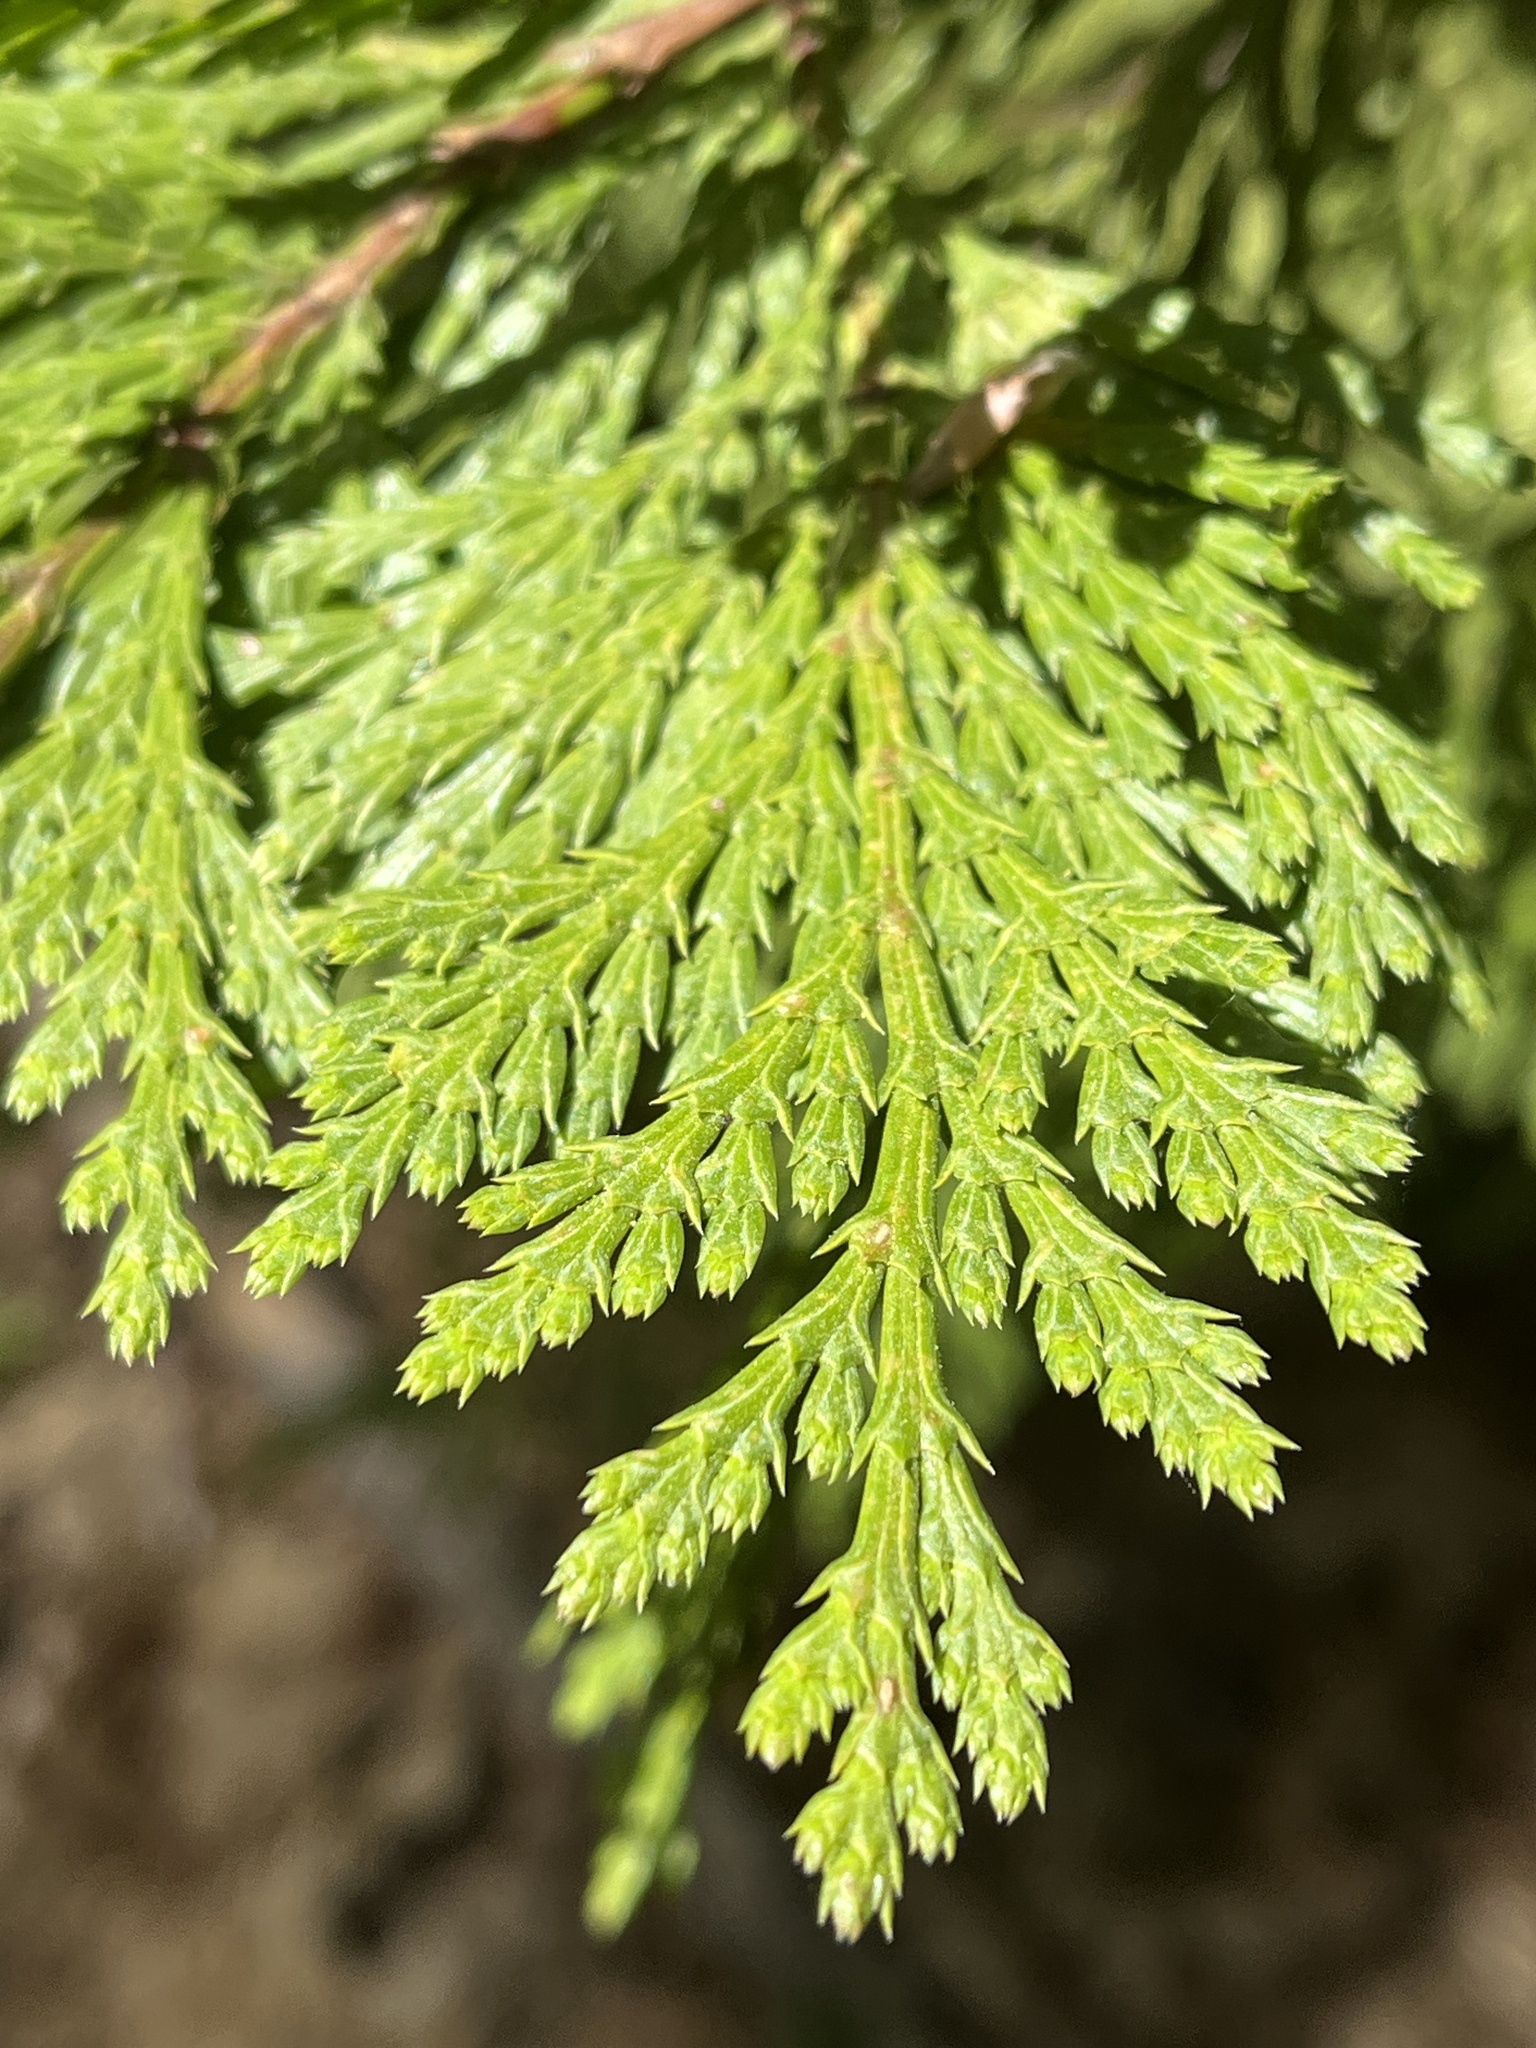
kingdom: Plantae
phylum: Tracheophyta
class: Pinopsida
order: Pinales
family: Cupressaceae
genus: Calocedrus
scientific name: Calocedrus decurrens
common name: Californian incense-cedar
